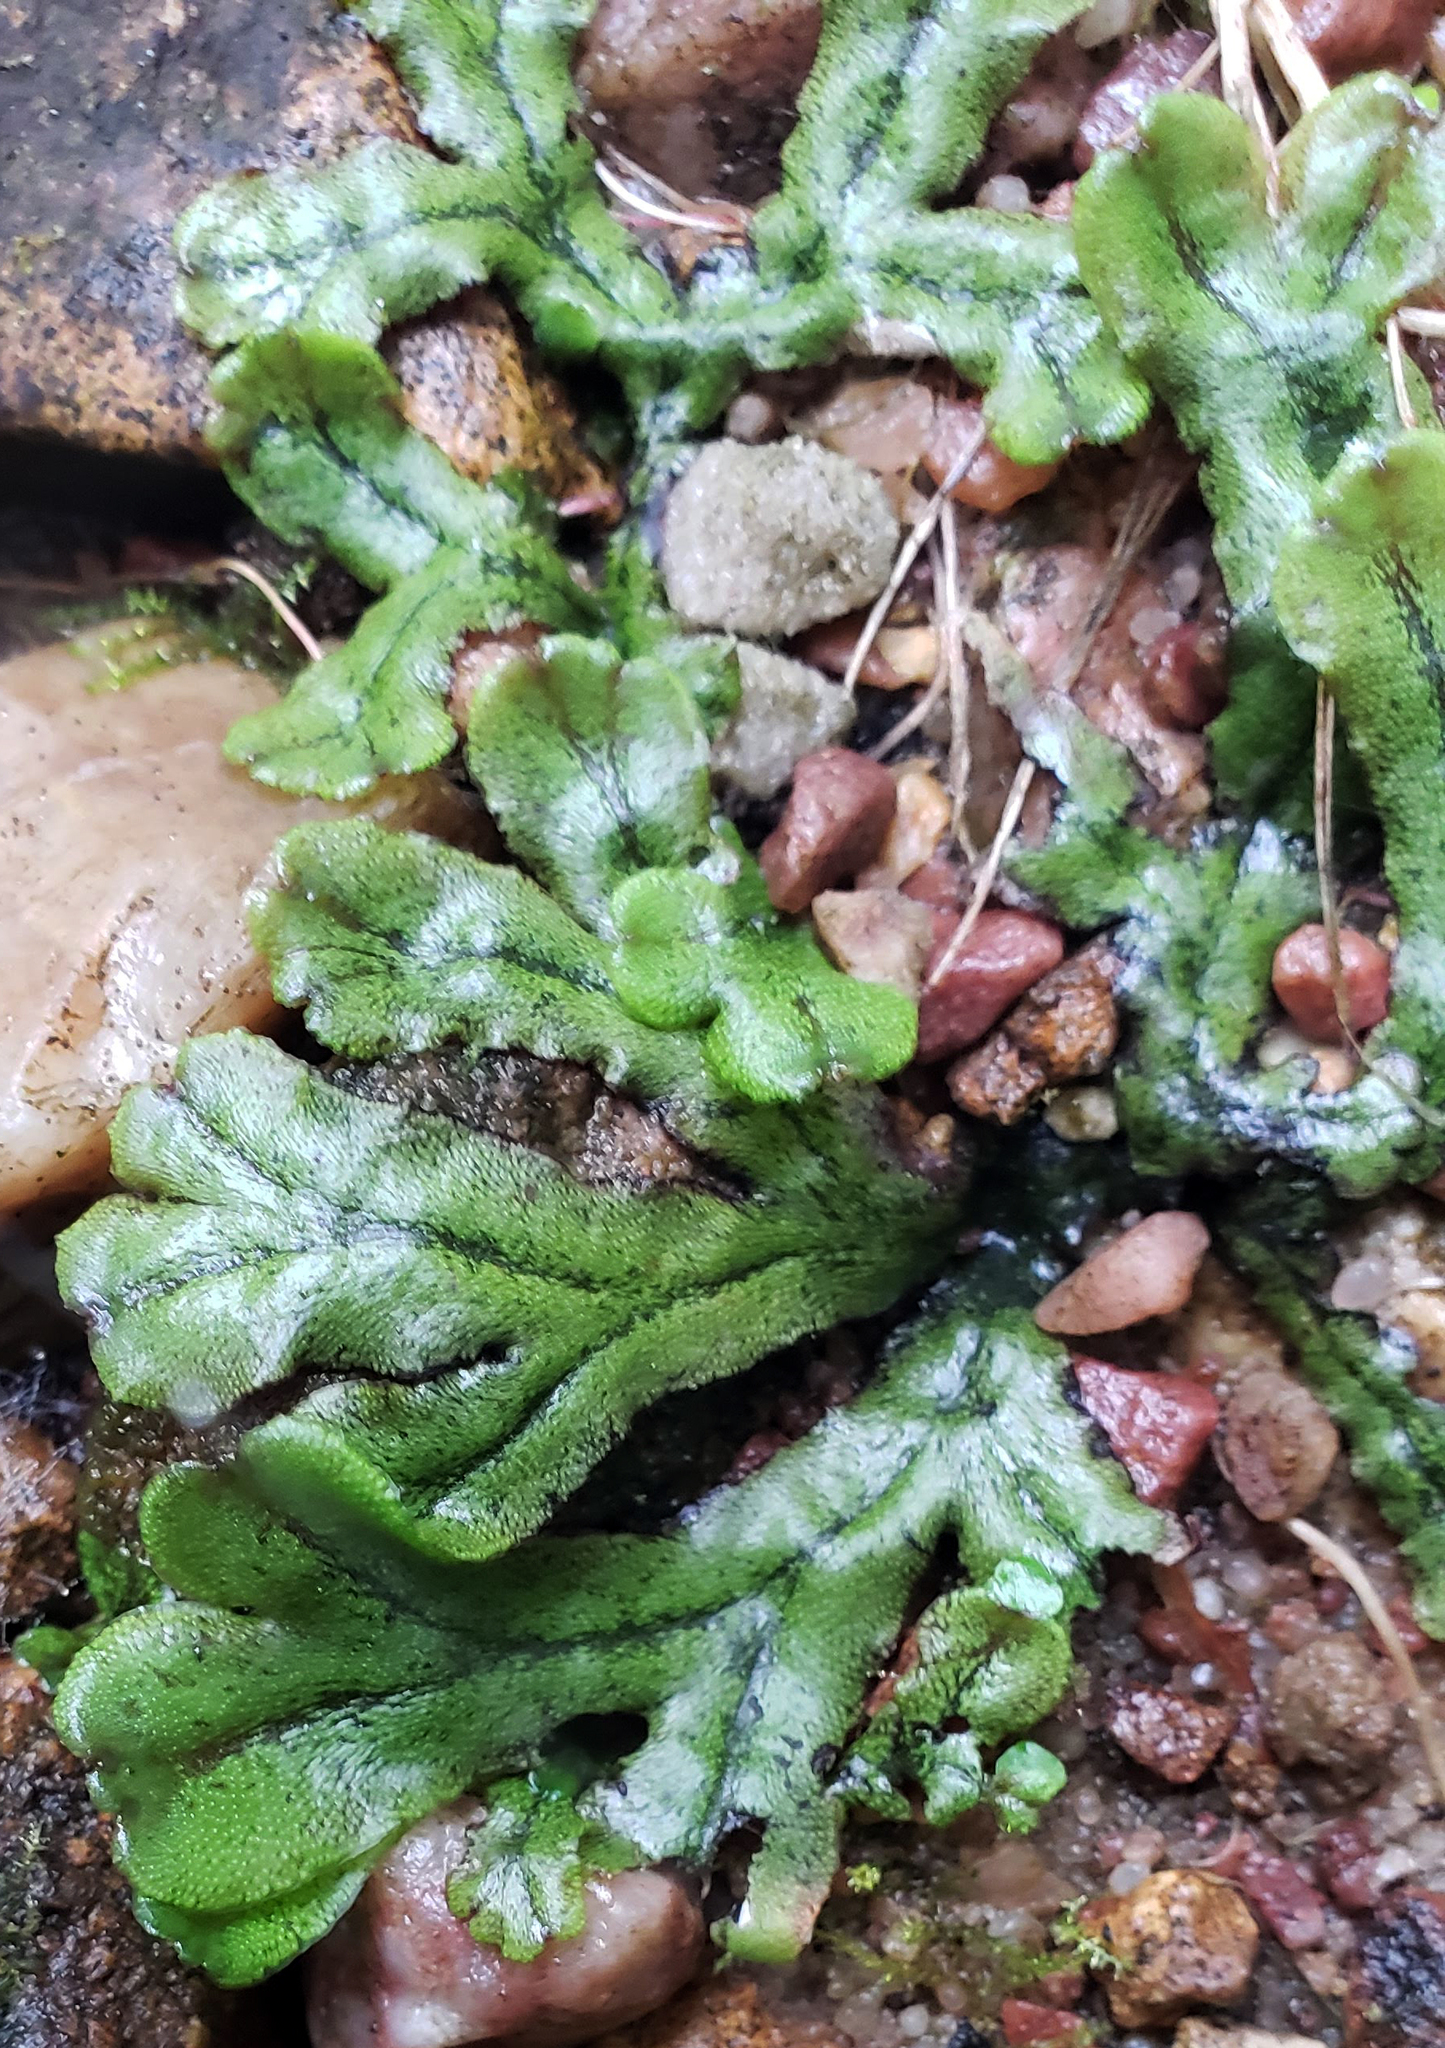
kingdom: Plantae
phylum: Marchantiophyta
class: Marchantiopsida
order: Marchantiales
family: Marchantiaceae
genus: Marchantia
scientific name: Marchantia polymorpha
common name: Common liverwort
